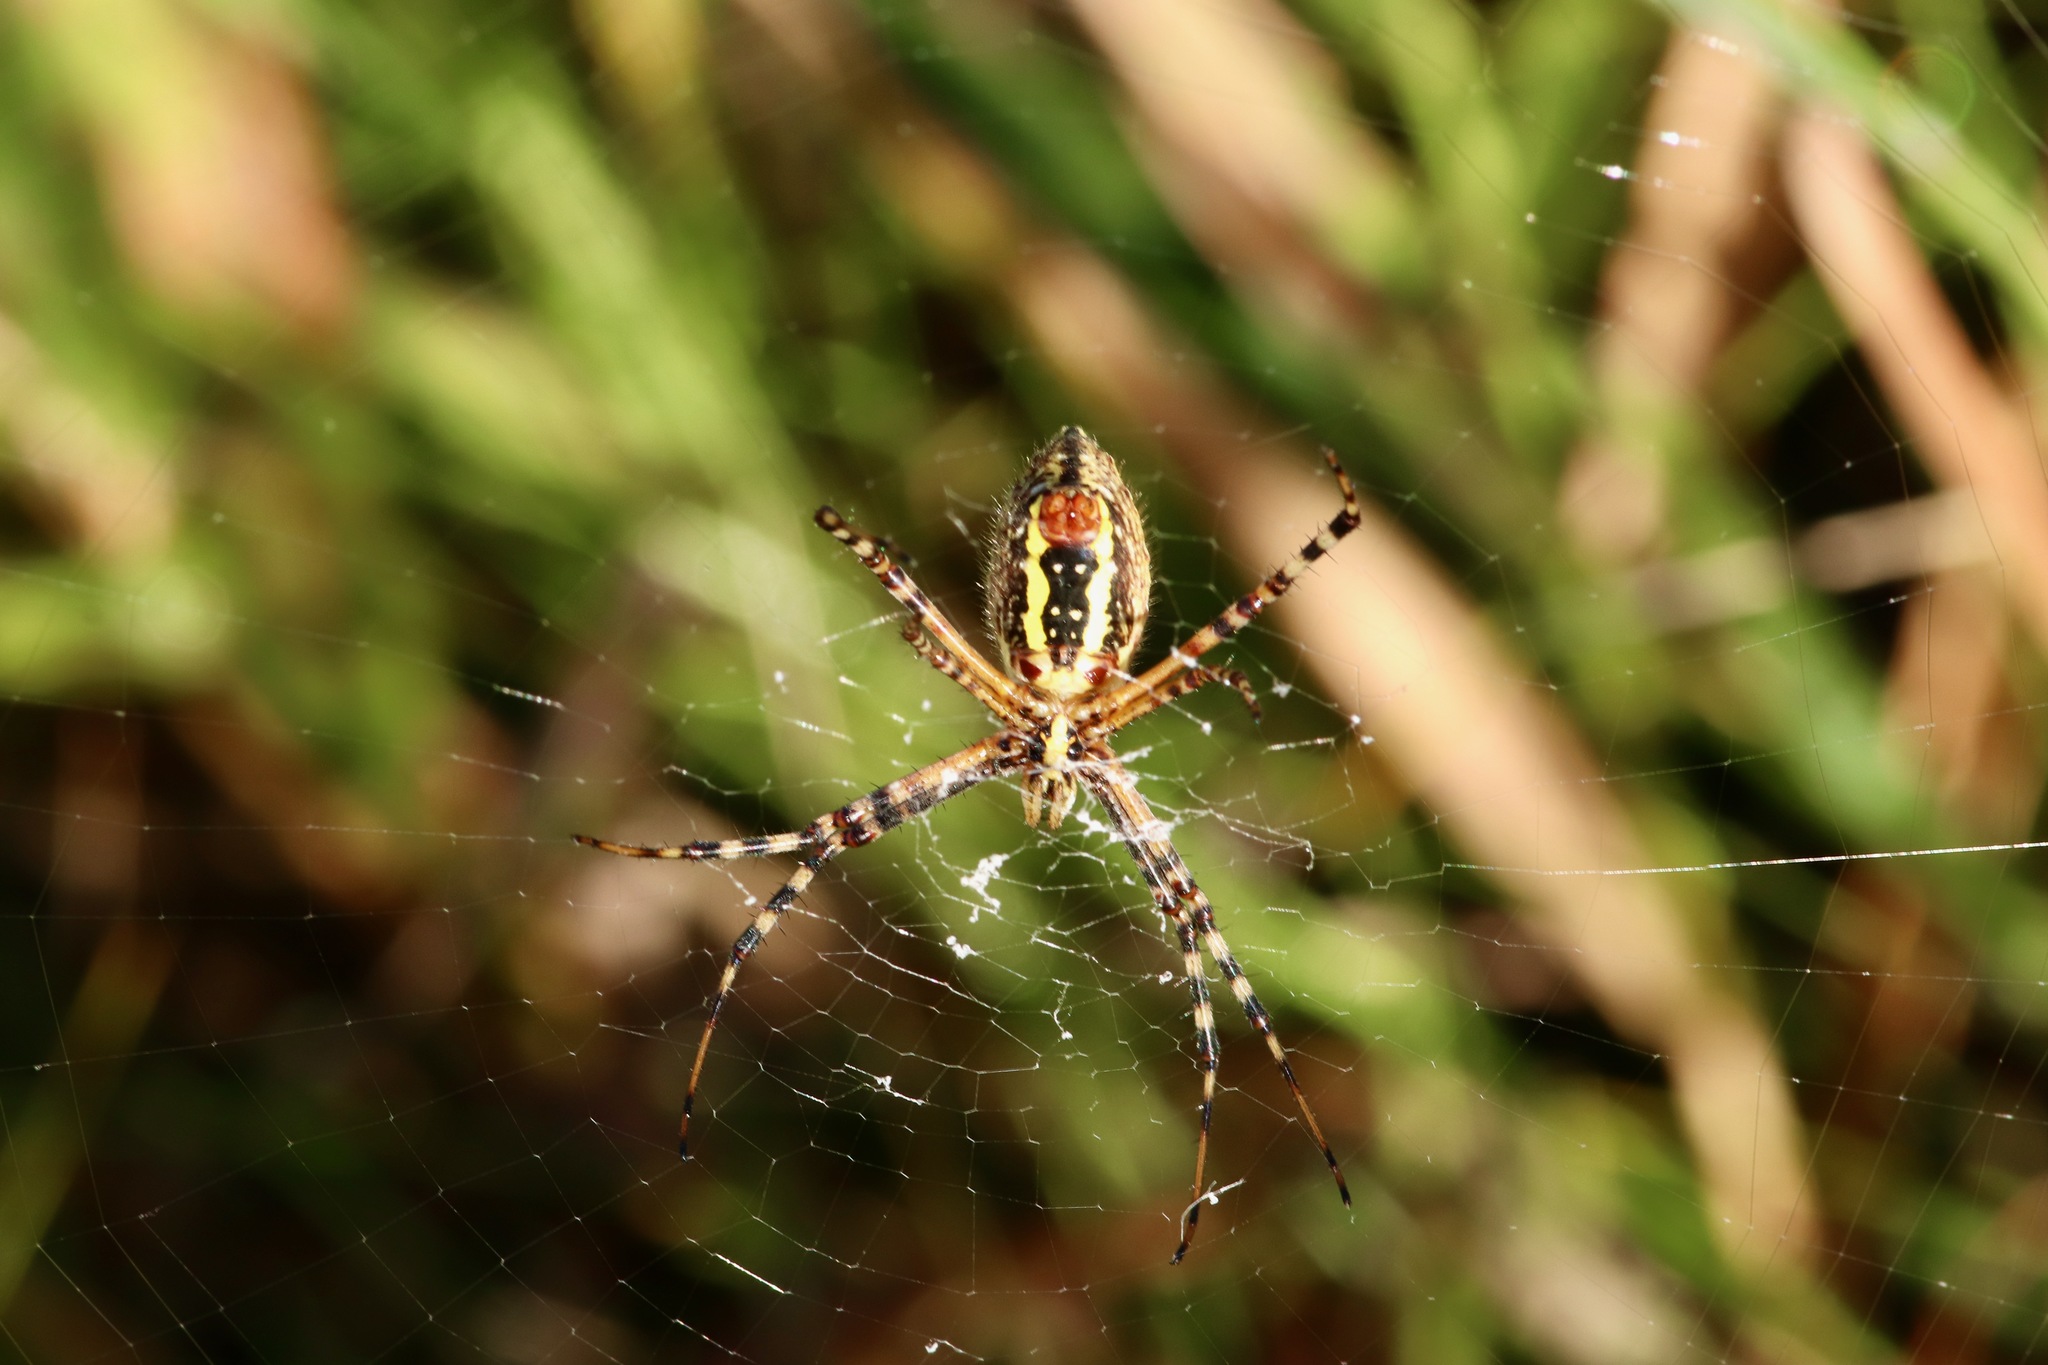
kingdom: Animalia
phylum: Arthropoda
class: Arachnida
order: Araneae
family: Araneidae
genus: Argiope
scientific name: Argiope trifasciata
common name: Banded garden spider
